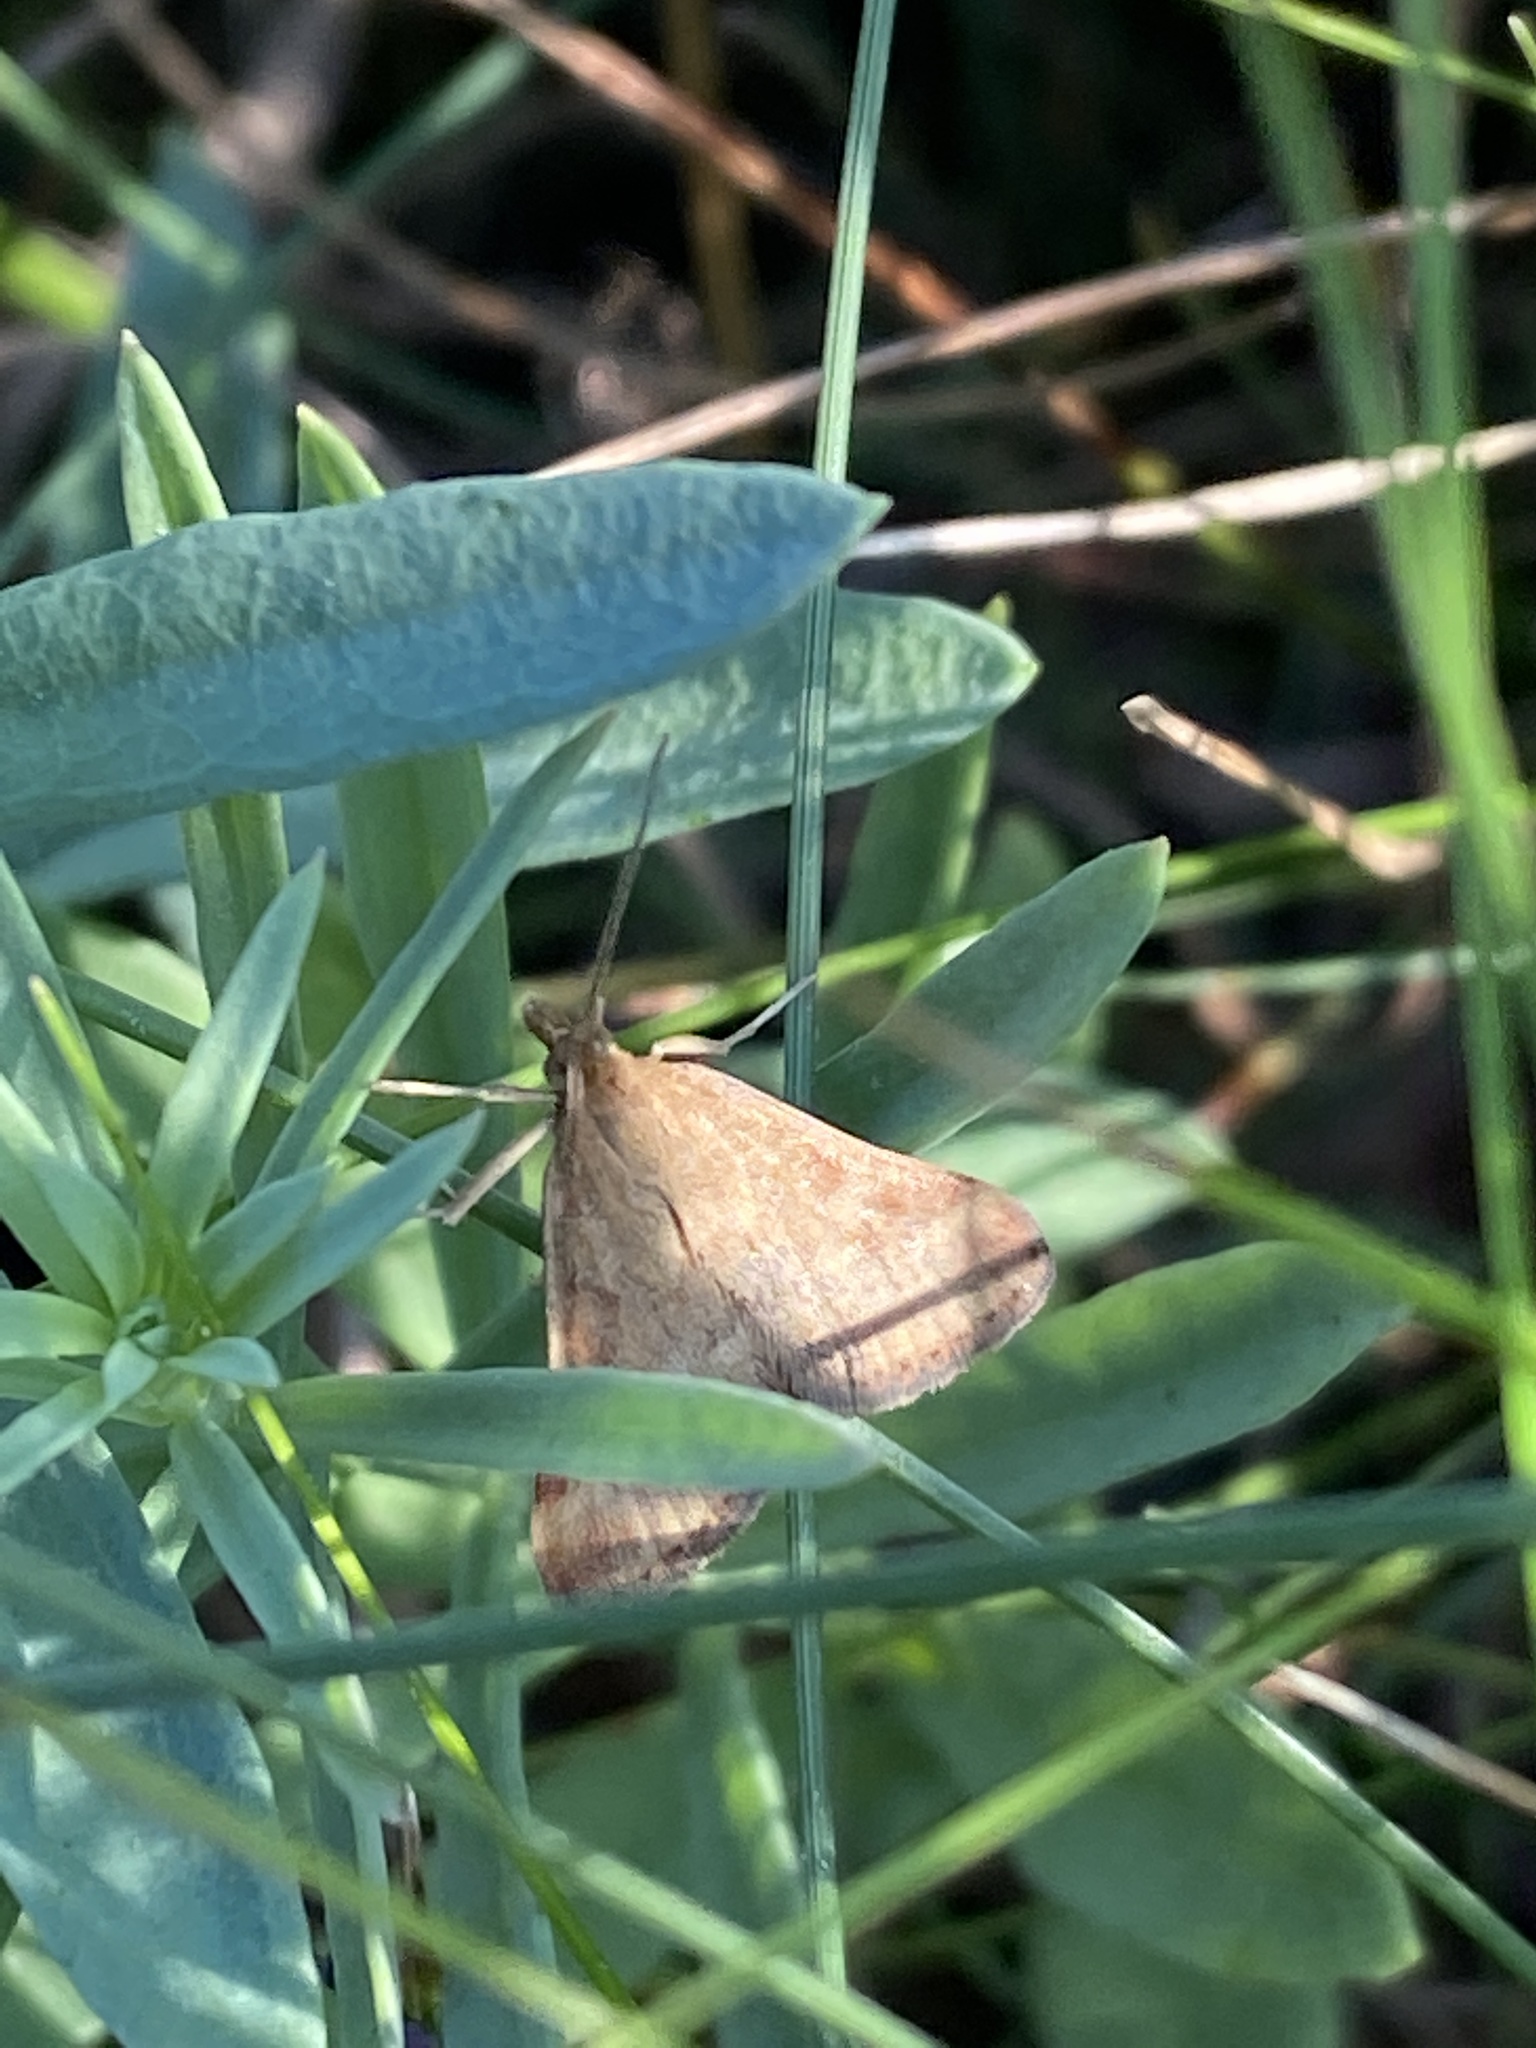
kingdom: Animalia
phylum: Arthropoda
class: Insecta
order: Lepidoptera
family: Crambidae
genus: Pyrausta
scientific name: Pyrausta despicata
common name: Straw-barred pearl
